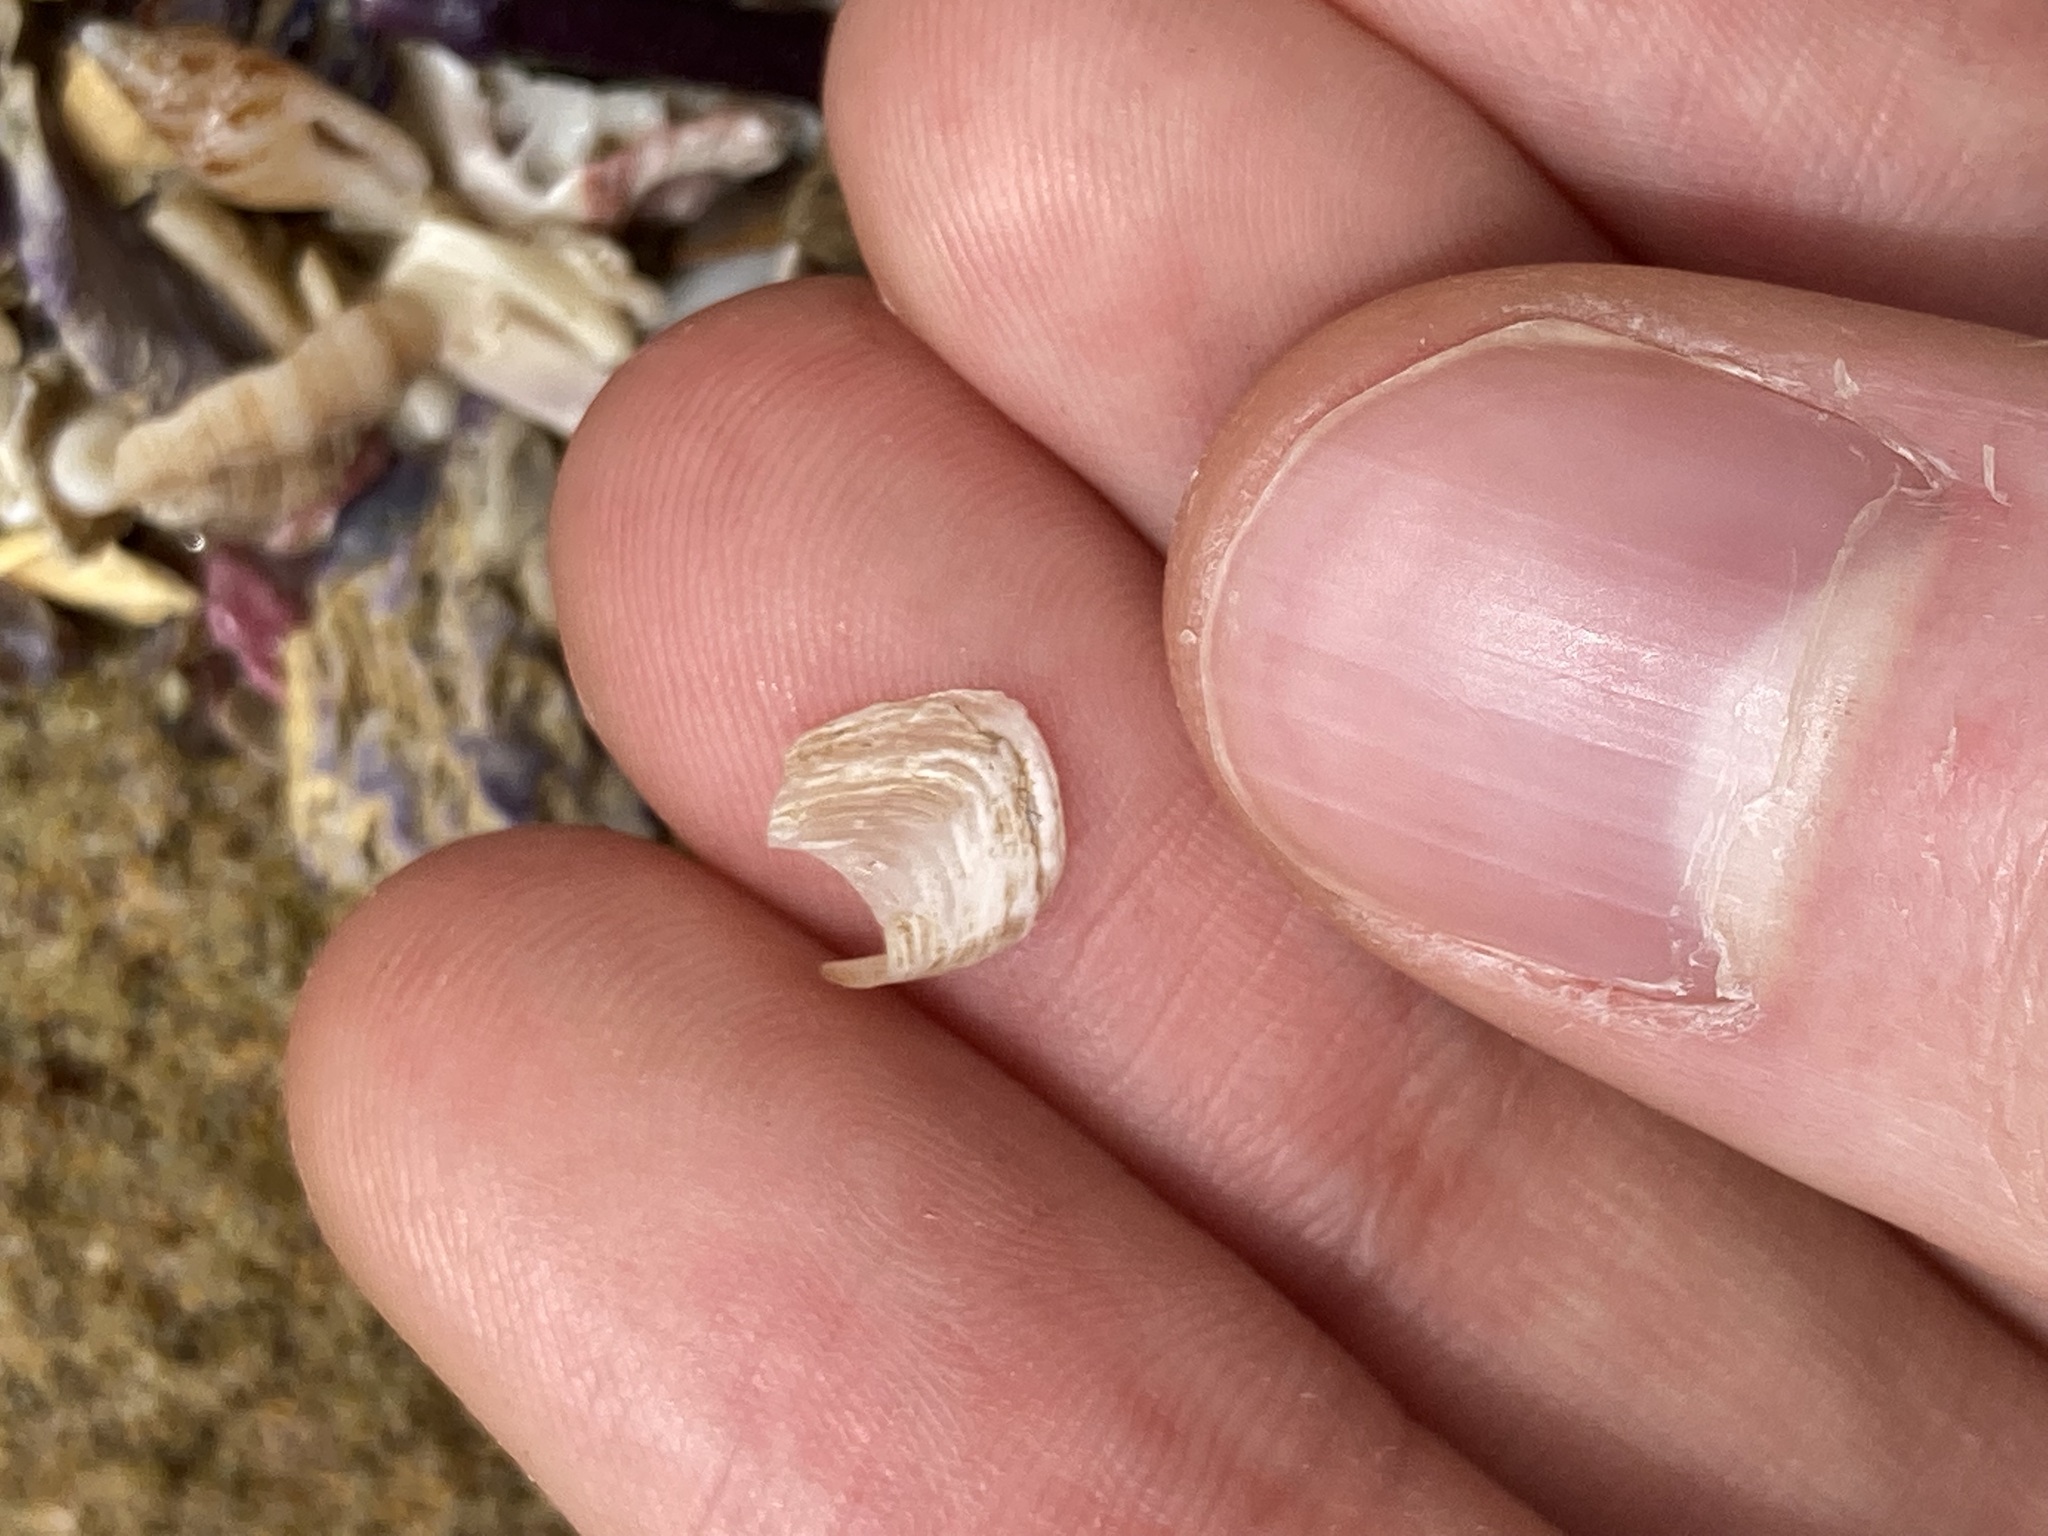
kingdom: Animalia
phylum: Mollusca
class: Bivalvia
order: Adapedonta
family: Hiatellidae
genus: Hiatella
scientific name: Hiatella australis
